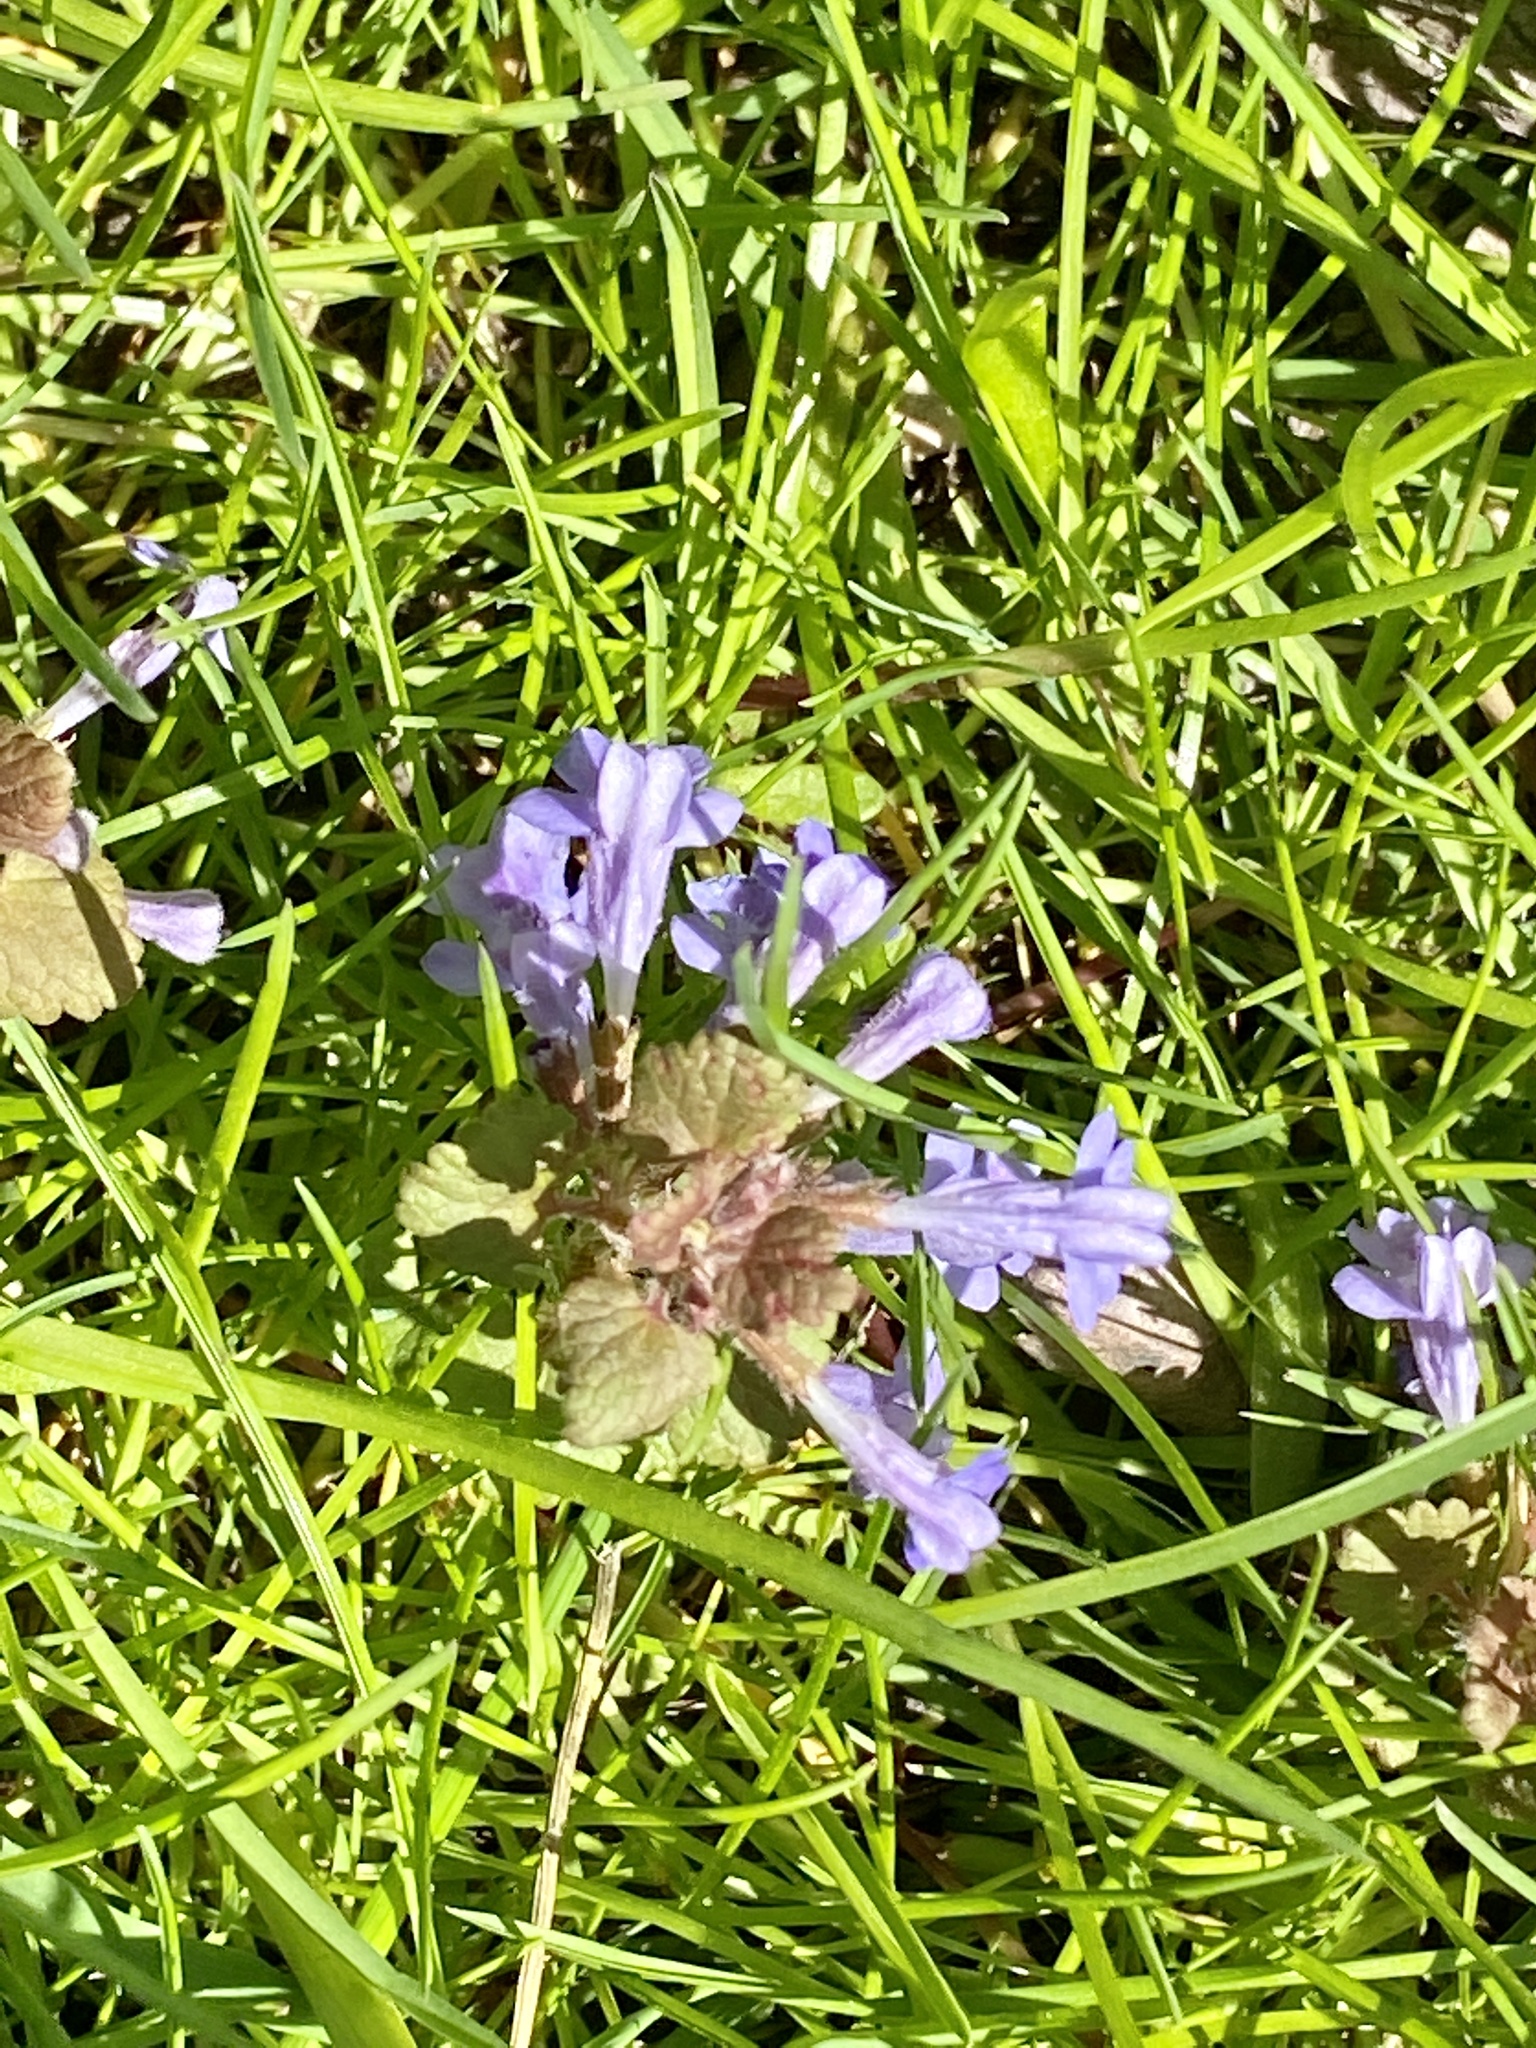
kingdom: Plantae
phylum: Tracheophyta
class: Magnoliopsida
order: Lamiales
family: Lamiaceae
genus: Glechoma
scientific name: Glechoma hederacea
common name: Ground ivy
